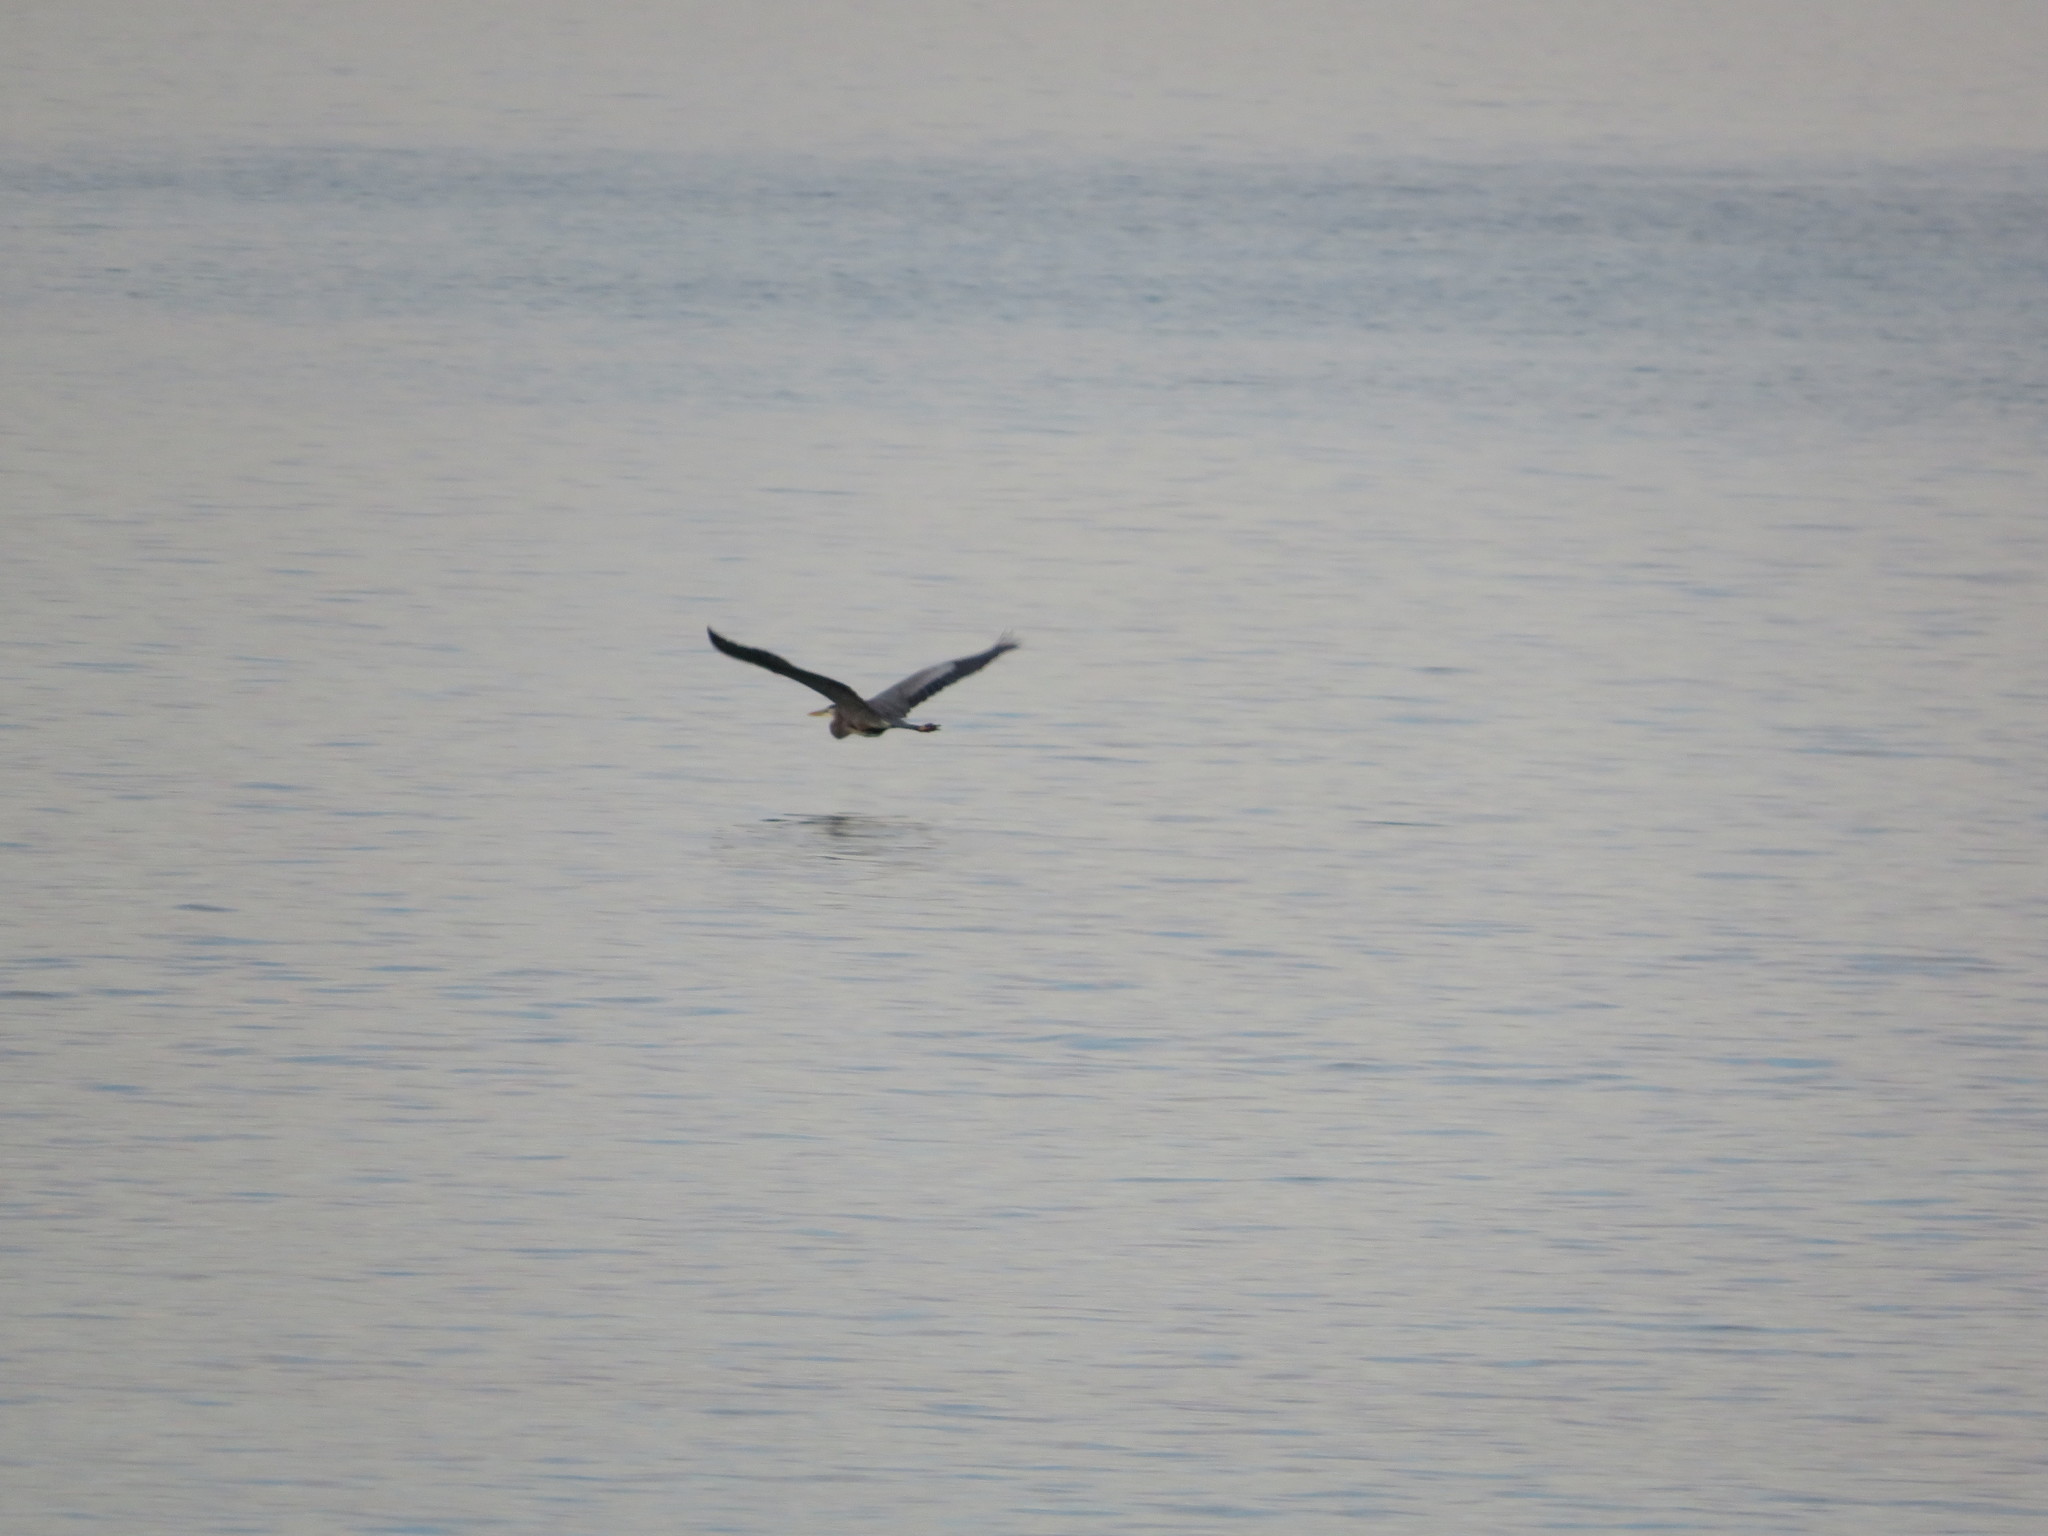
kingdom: Animalia
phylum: Chordata
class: Aves
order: Pelecaniformes
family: Ardeidae
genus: Ardea
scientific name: Ardea herodias
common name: Great blue heron
